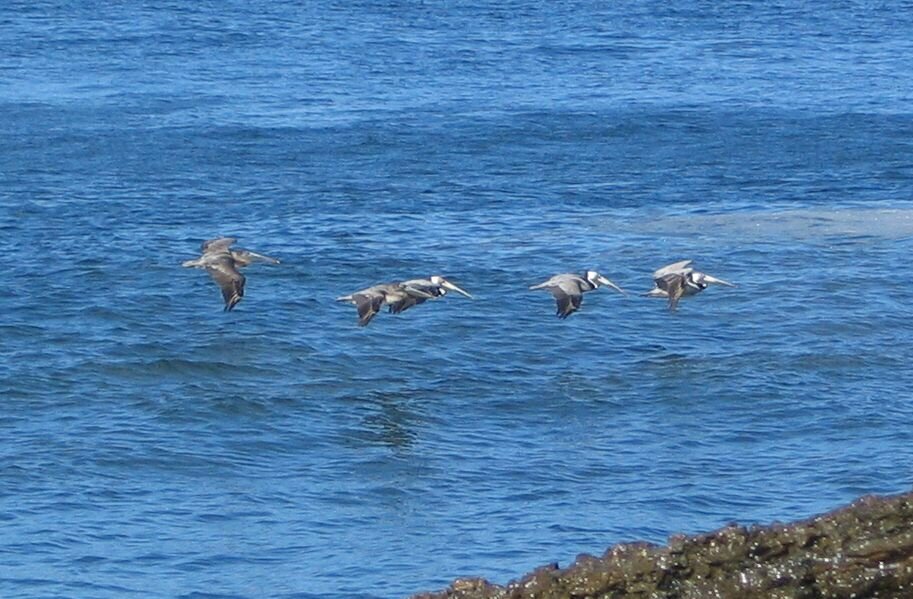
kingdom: Animalia
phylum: Chordata
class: Aves
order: Pelecaniformes
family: Pelecanidae
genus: Pelecanus
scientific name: Pelecanus occidentalis
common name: Brown pelican
